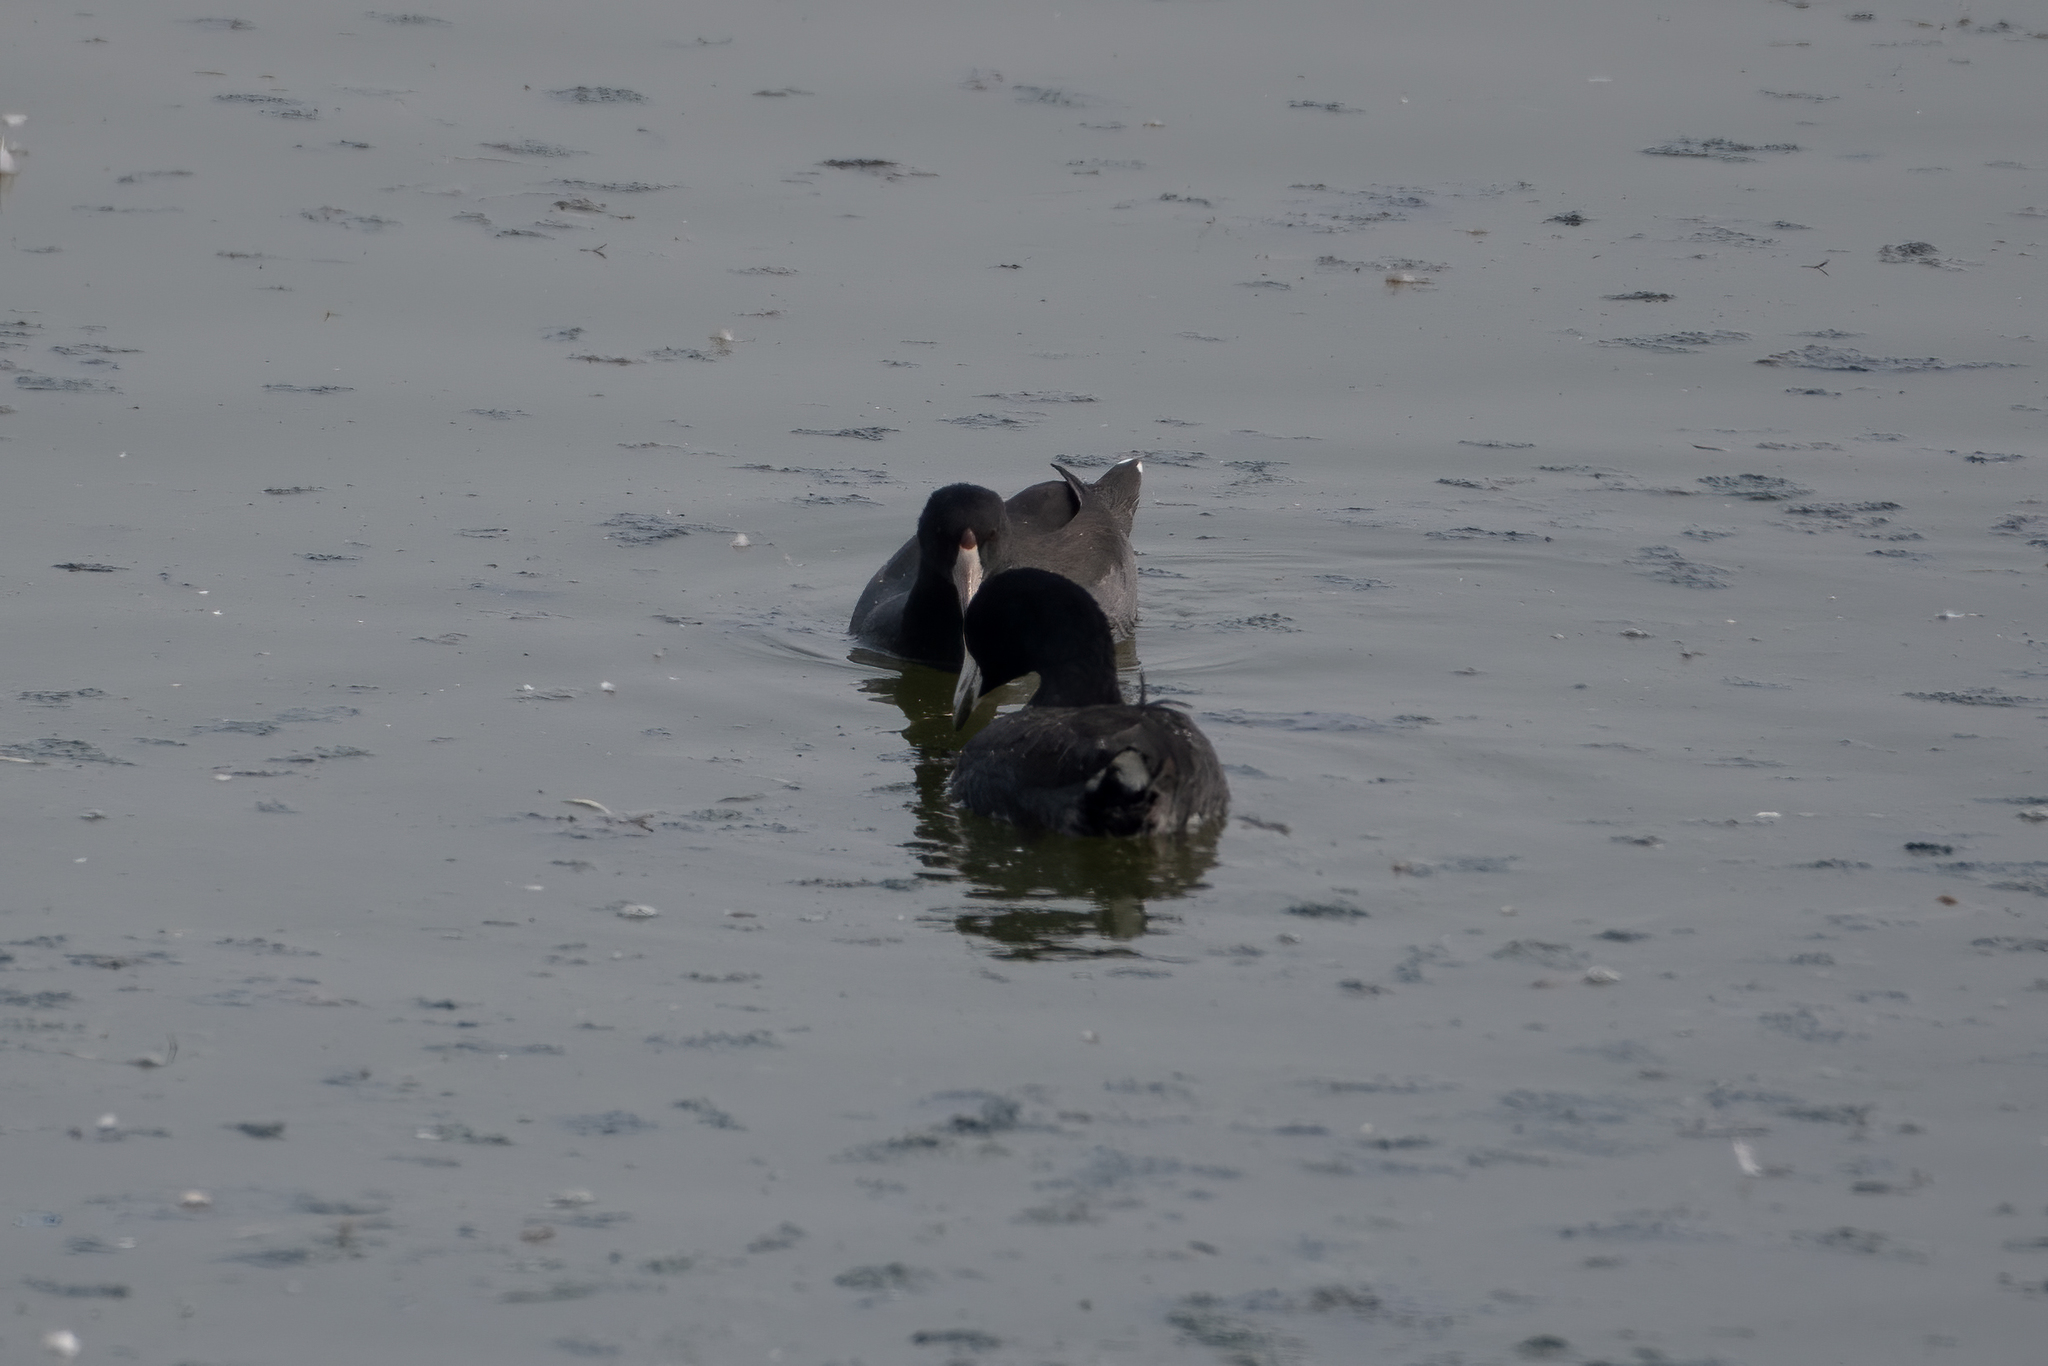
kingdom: Animalia
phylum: Chordata
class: Aves
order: Gruiformes
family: Rallidae
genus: Fulica
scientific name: Fulica americana
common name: American coot
